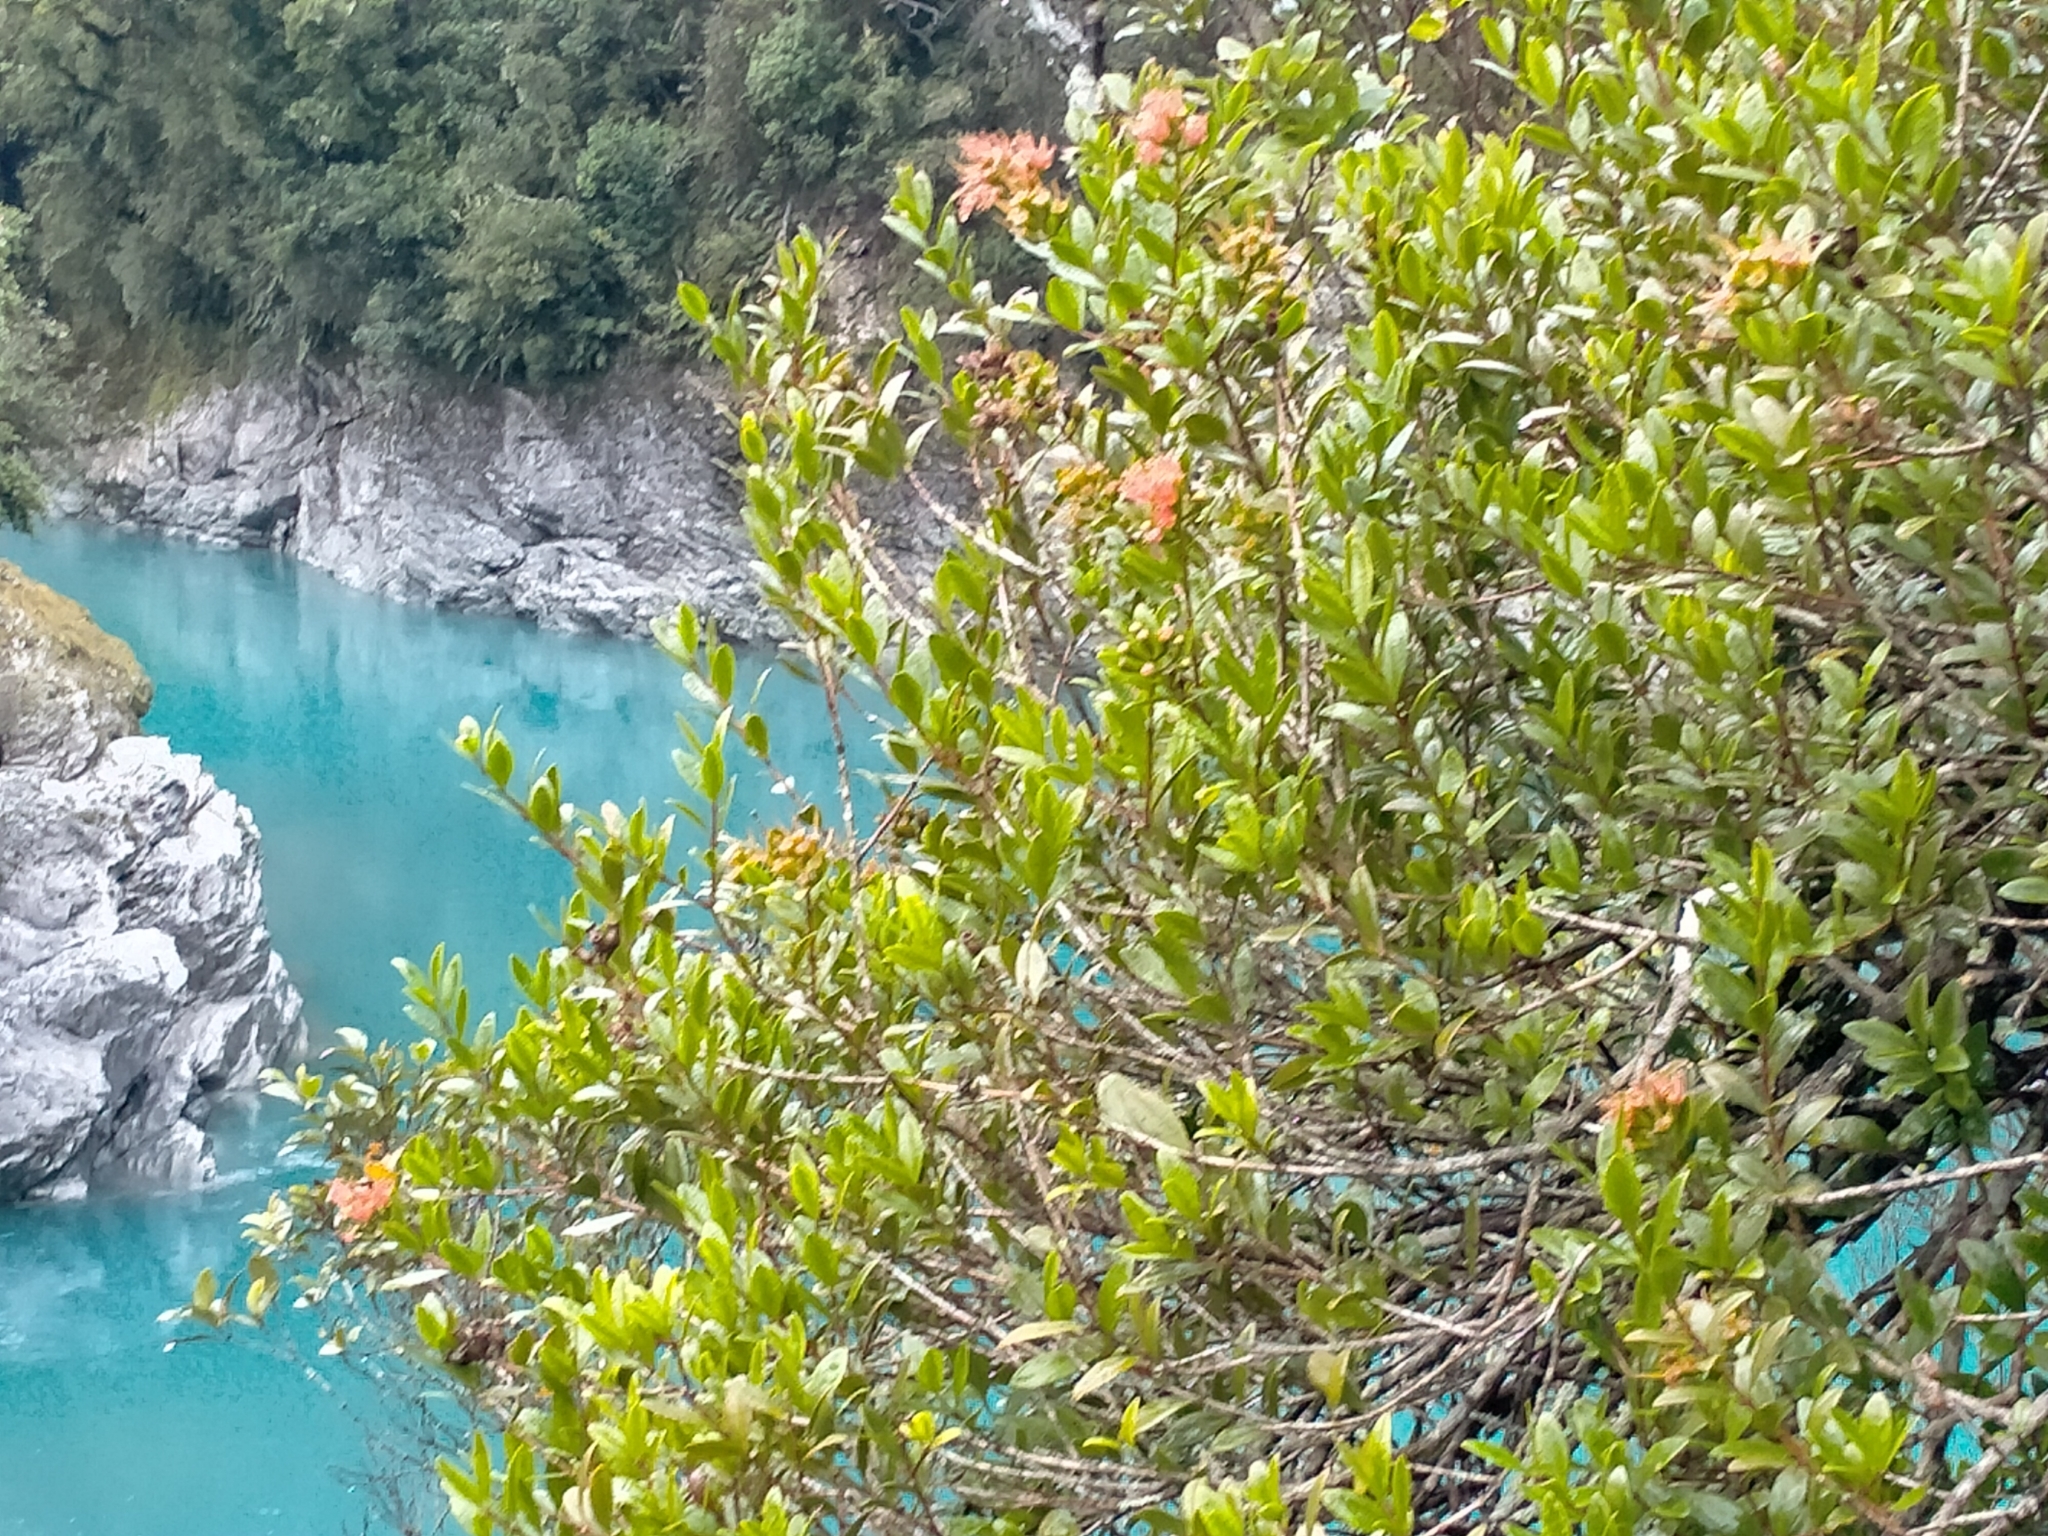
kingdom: Plantae
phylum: Tracheophyta
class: Magnoliopsida
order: Myrtales
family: Myrtaceae
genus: Metrosideros
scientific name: Metrosideros fulgens
